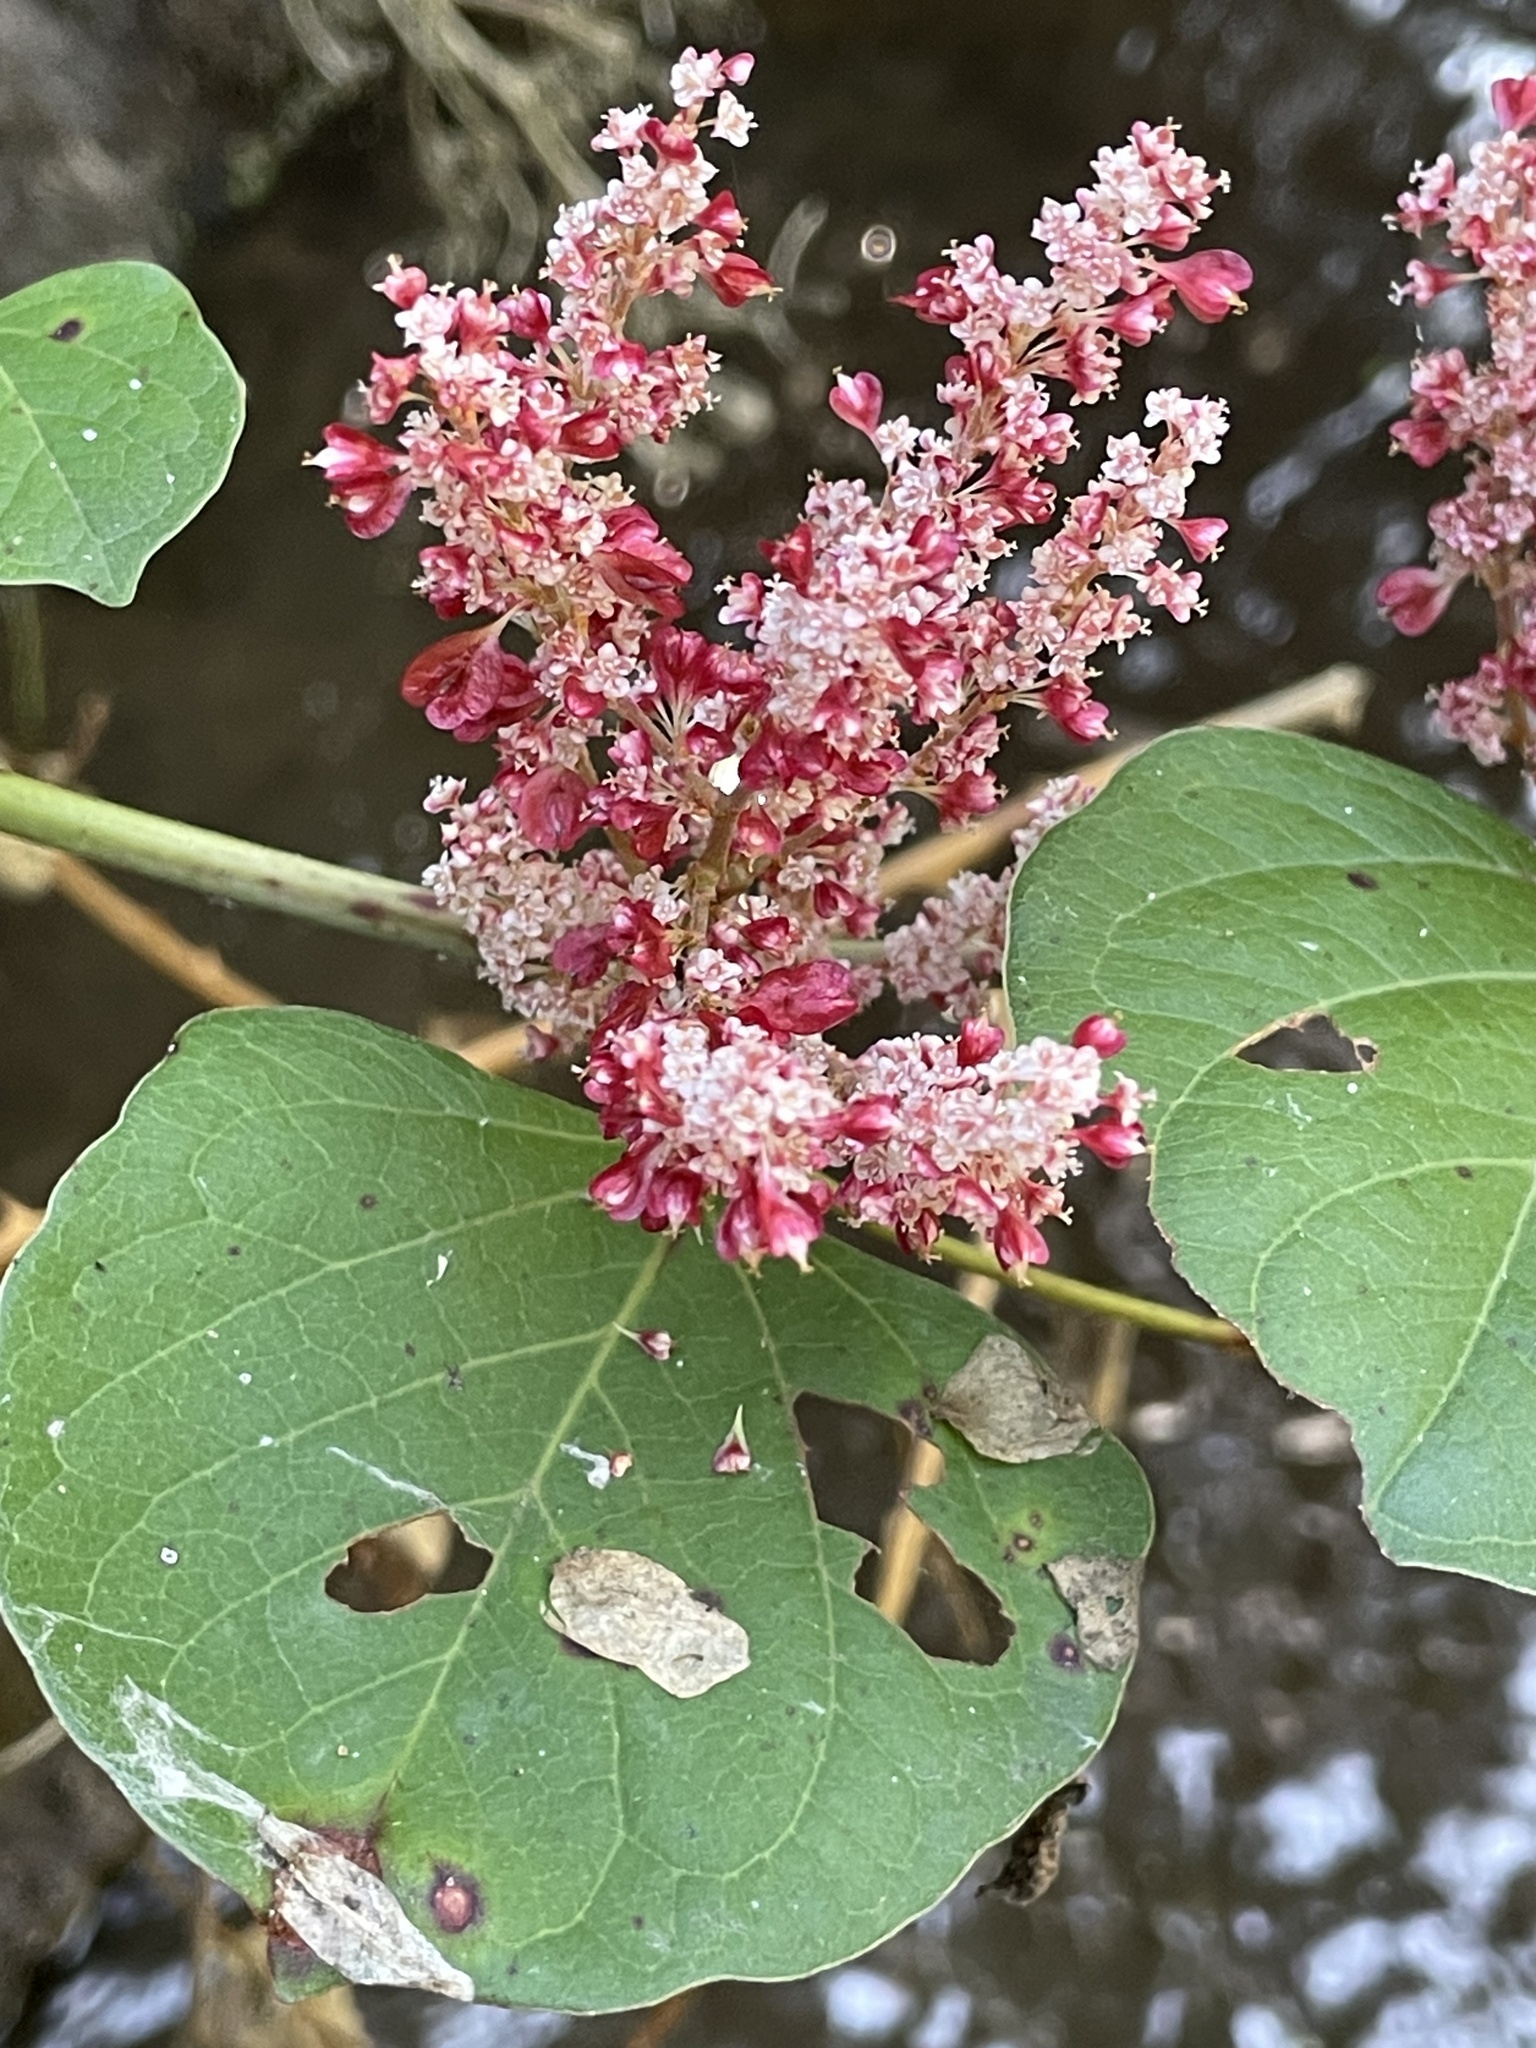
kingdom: Plantae
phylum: Tracheophyta
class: Magnoliopsida
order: Caryophyllales
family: Polygonaceae
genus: Reynoutria
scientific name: Reynoutria japonica
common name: Japanese knotweed
